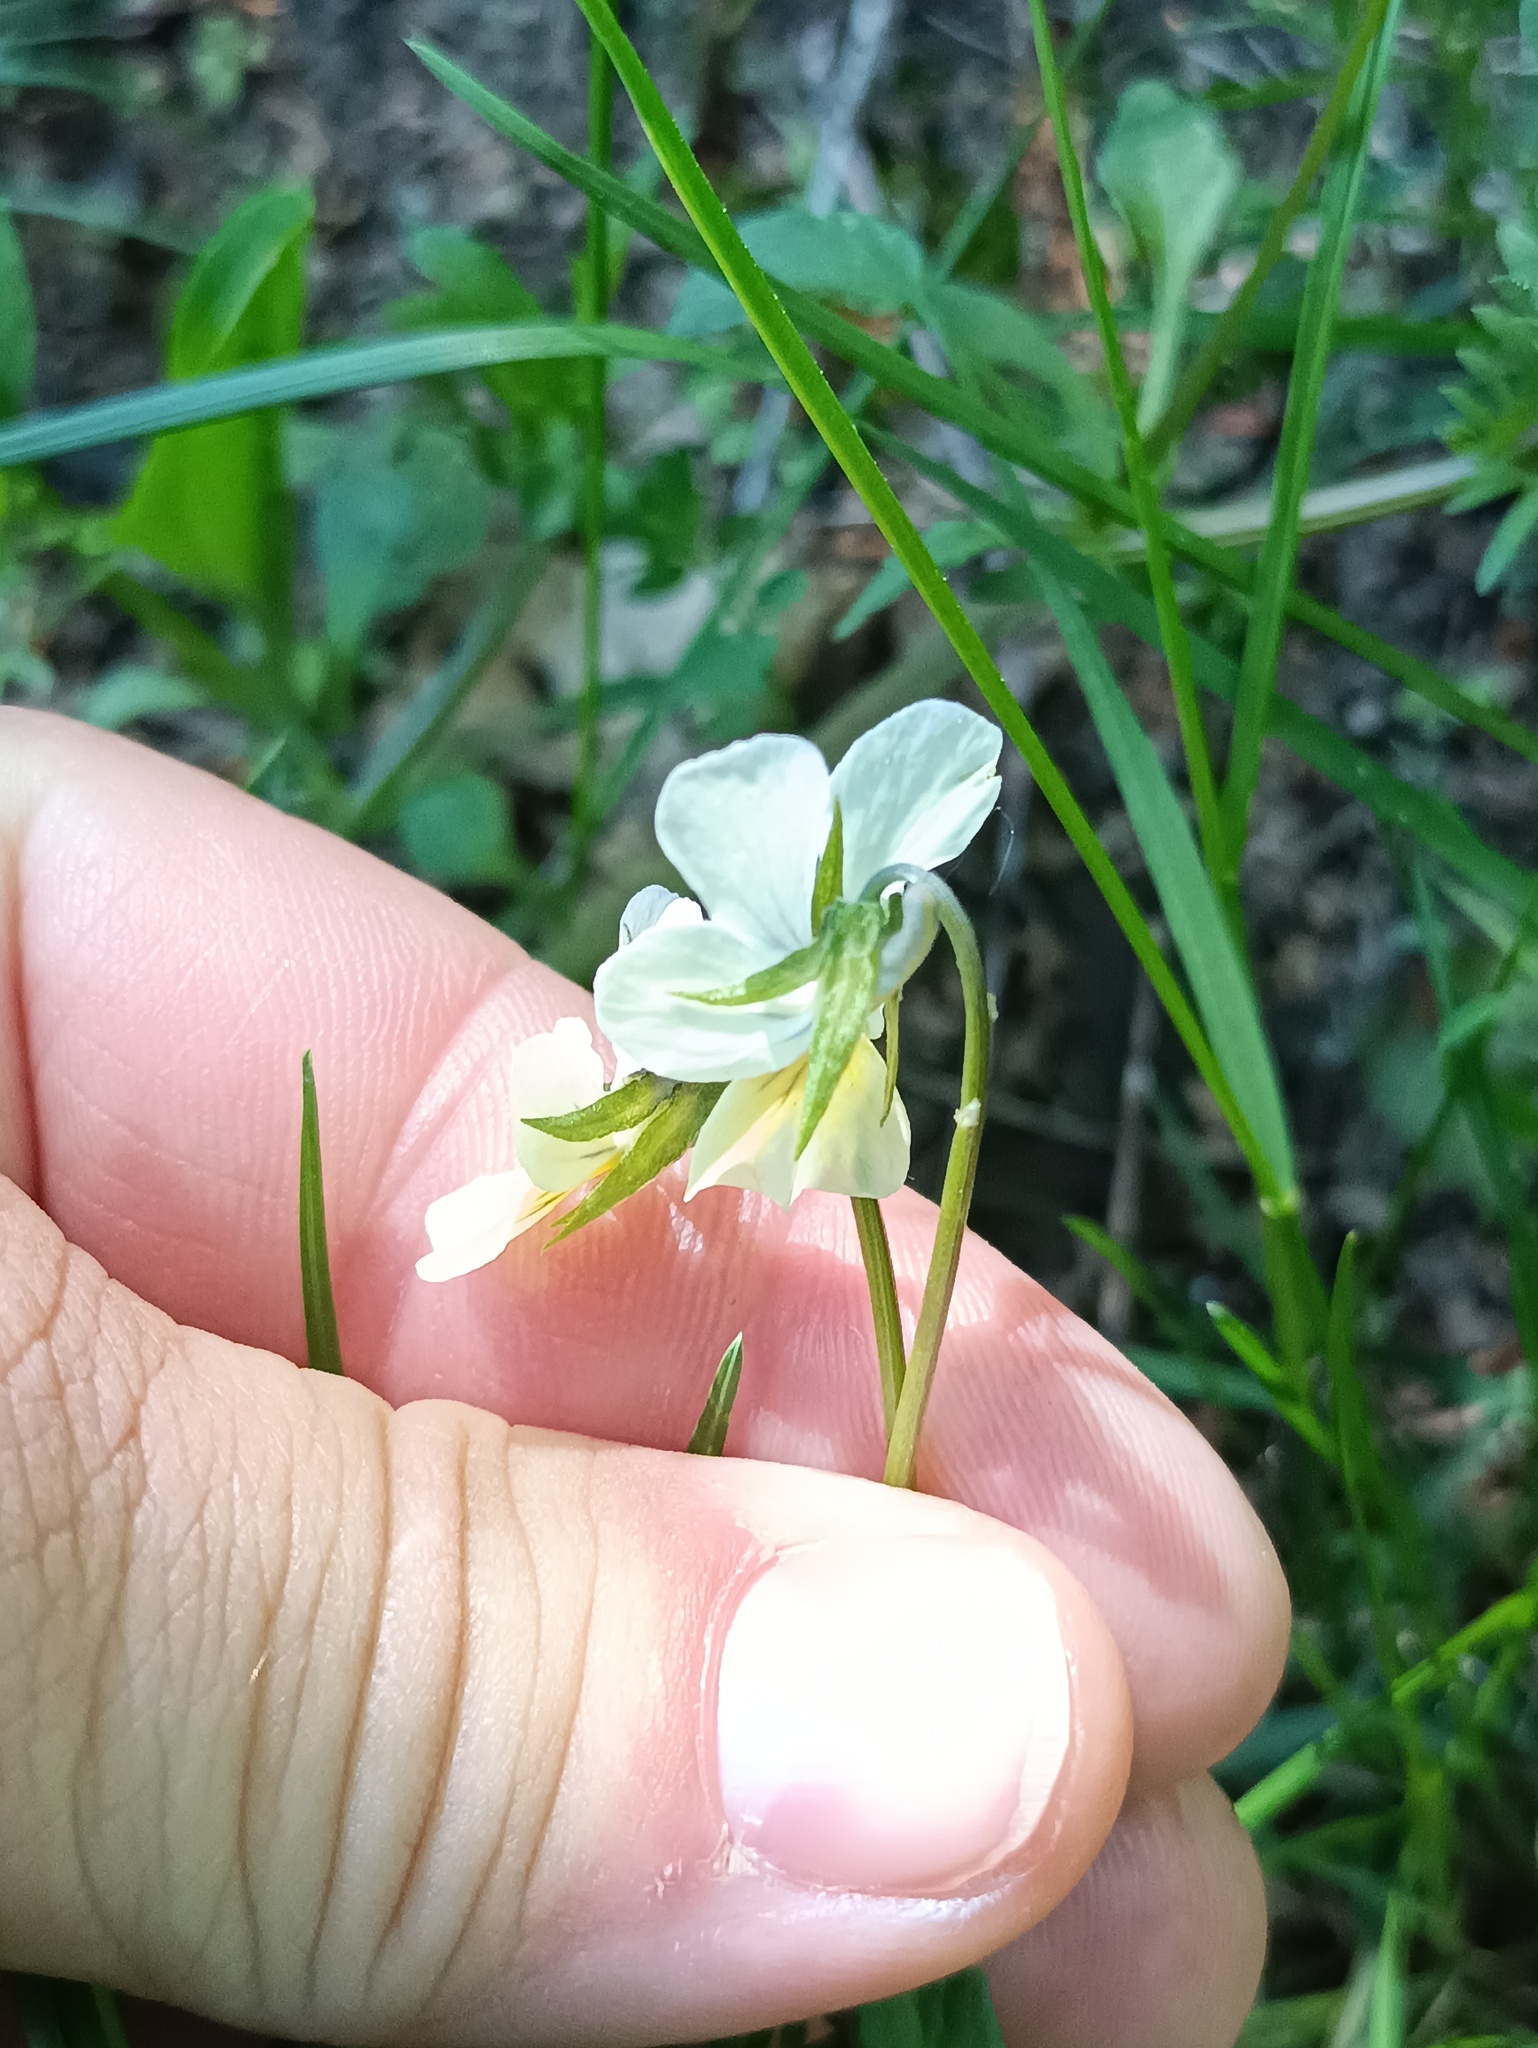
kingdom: Plantae
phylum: Tracheophyta
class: Magnoliopsida
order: Malpighiales
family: Violaceae
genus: Viola
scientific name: Viola arvensis
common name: Field pansy
